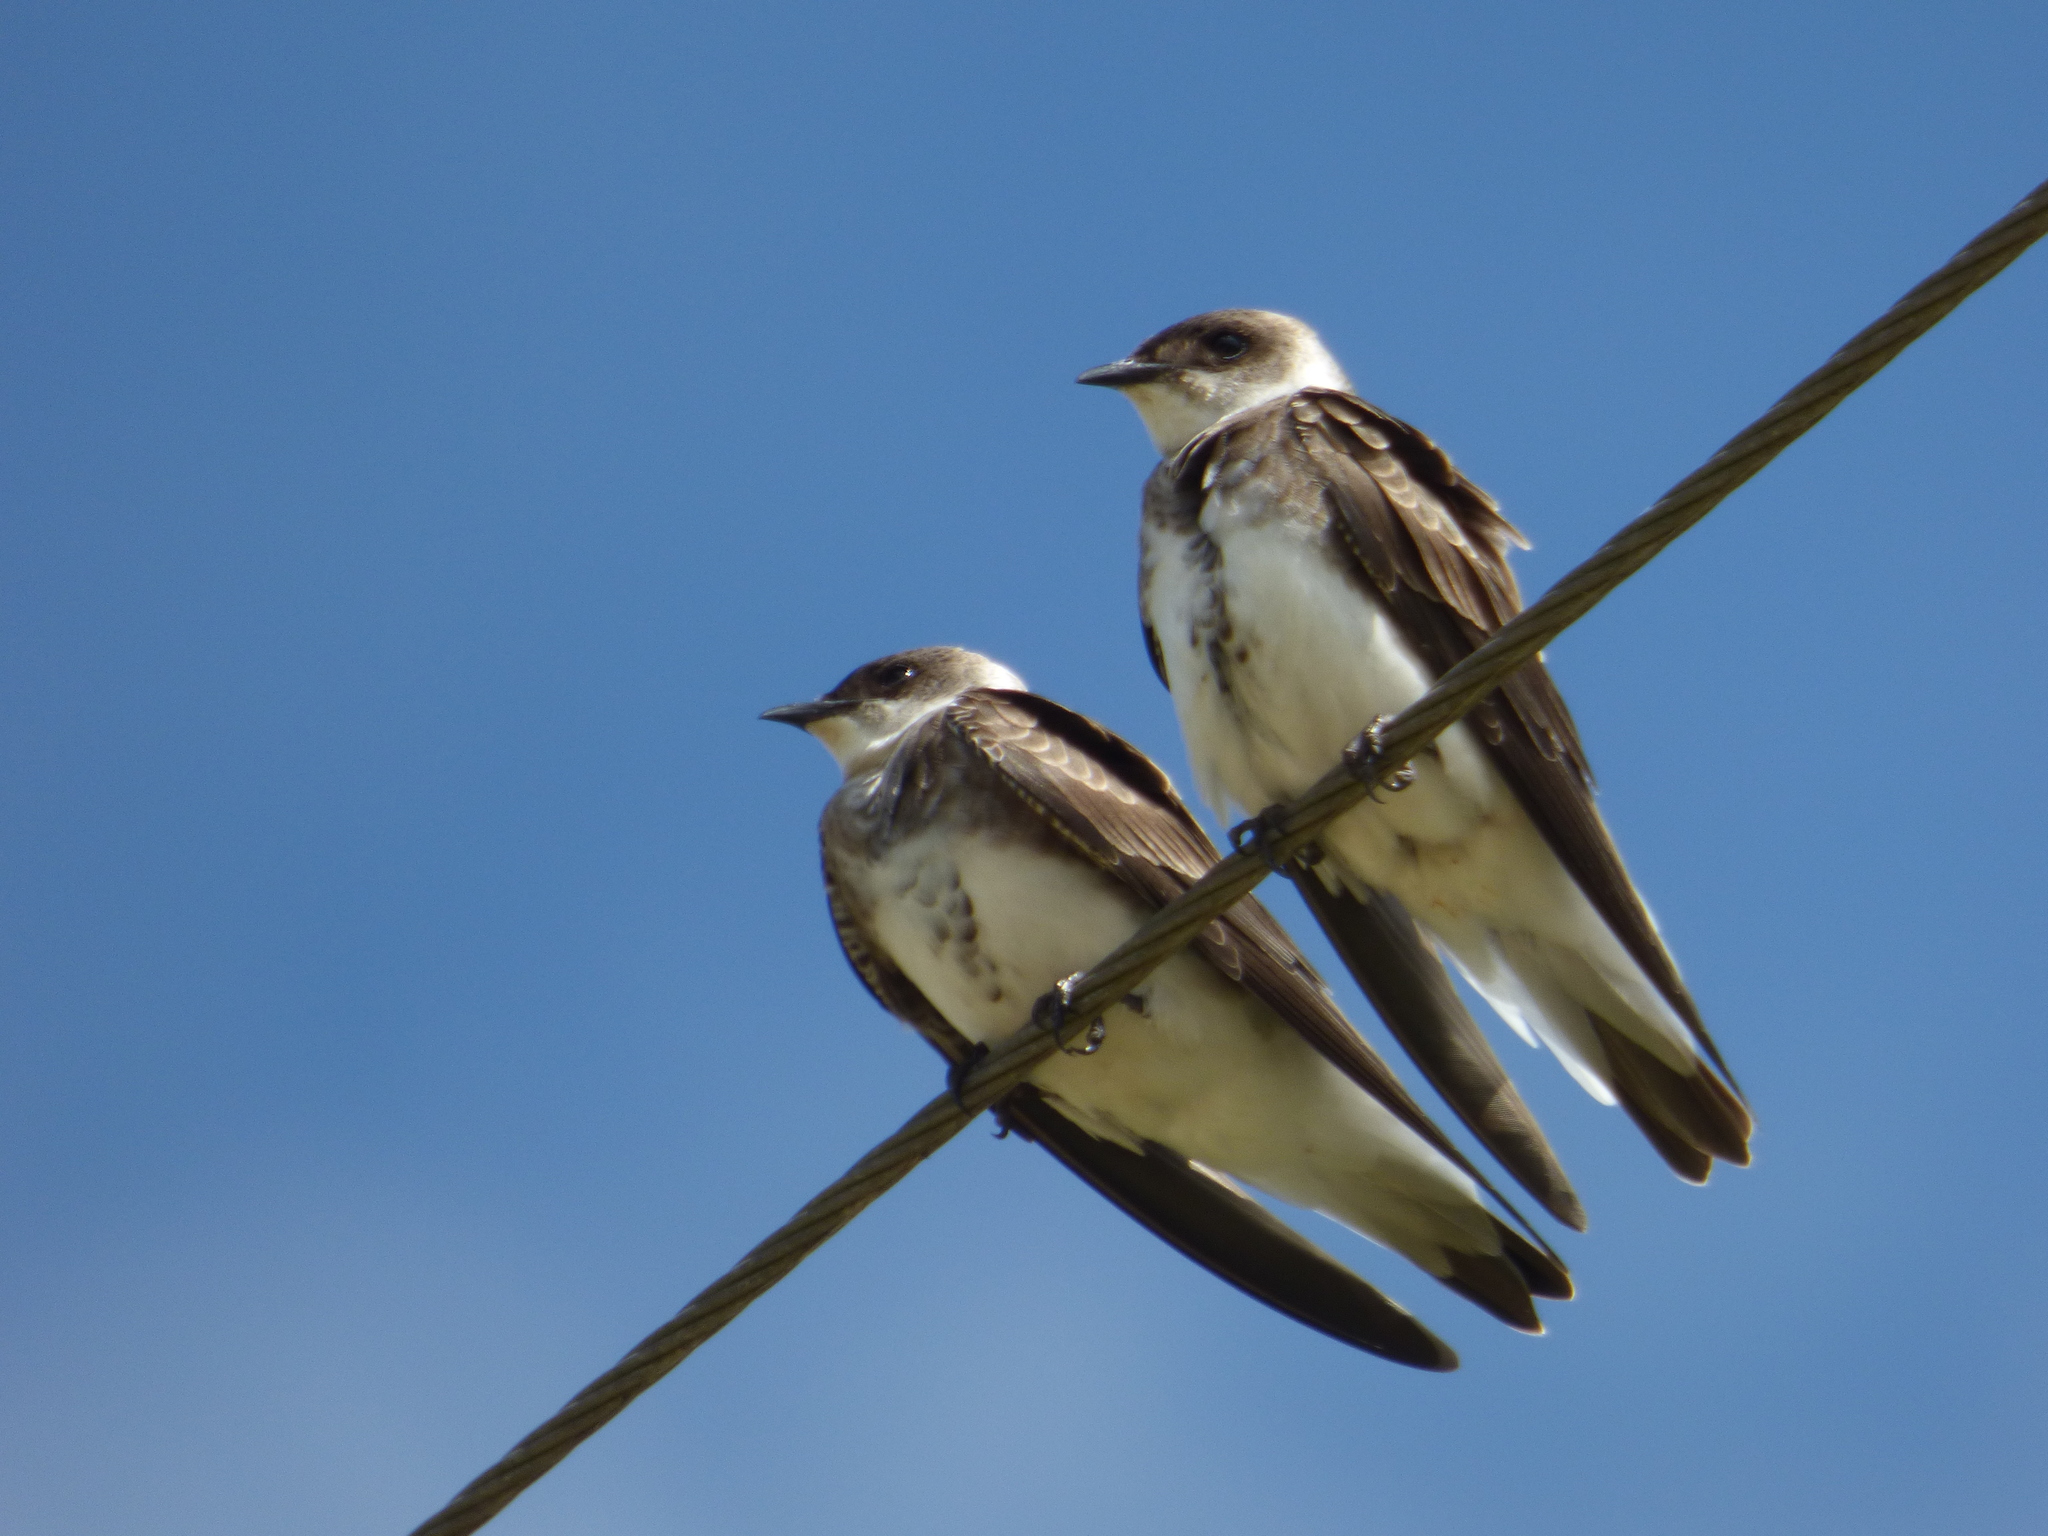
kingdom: Animalia
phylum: Chordata
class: Aves
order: Passeriformes
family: Hirundinidae
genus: Progne
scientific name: Progne tapera
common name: Brown-chested martin
